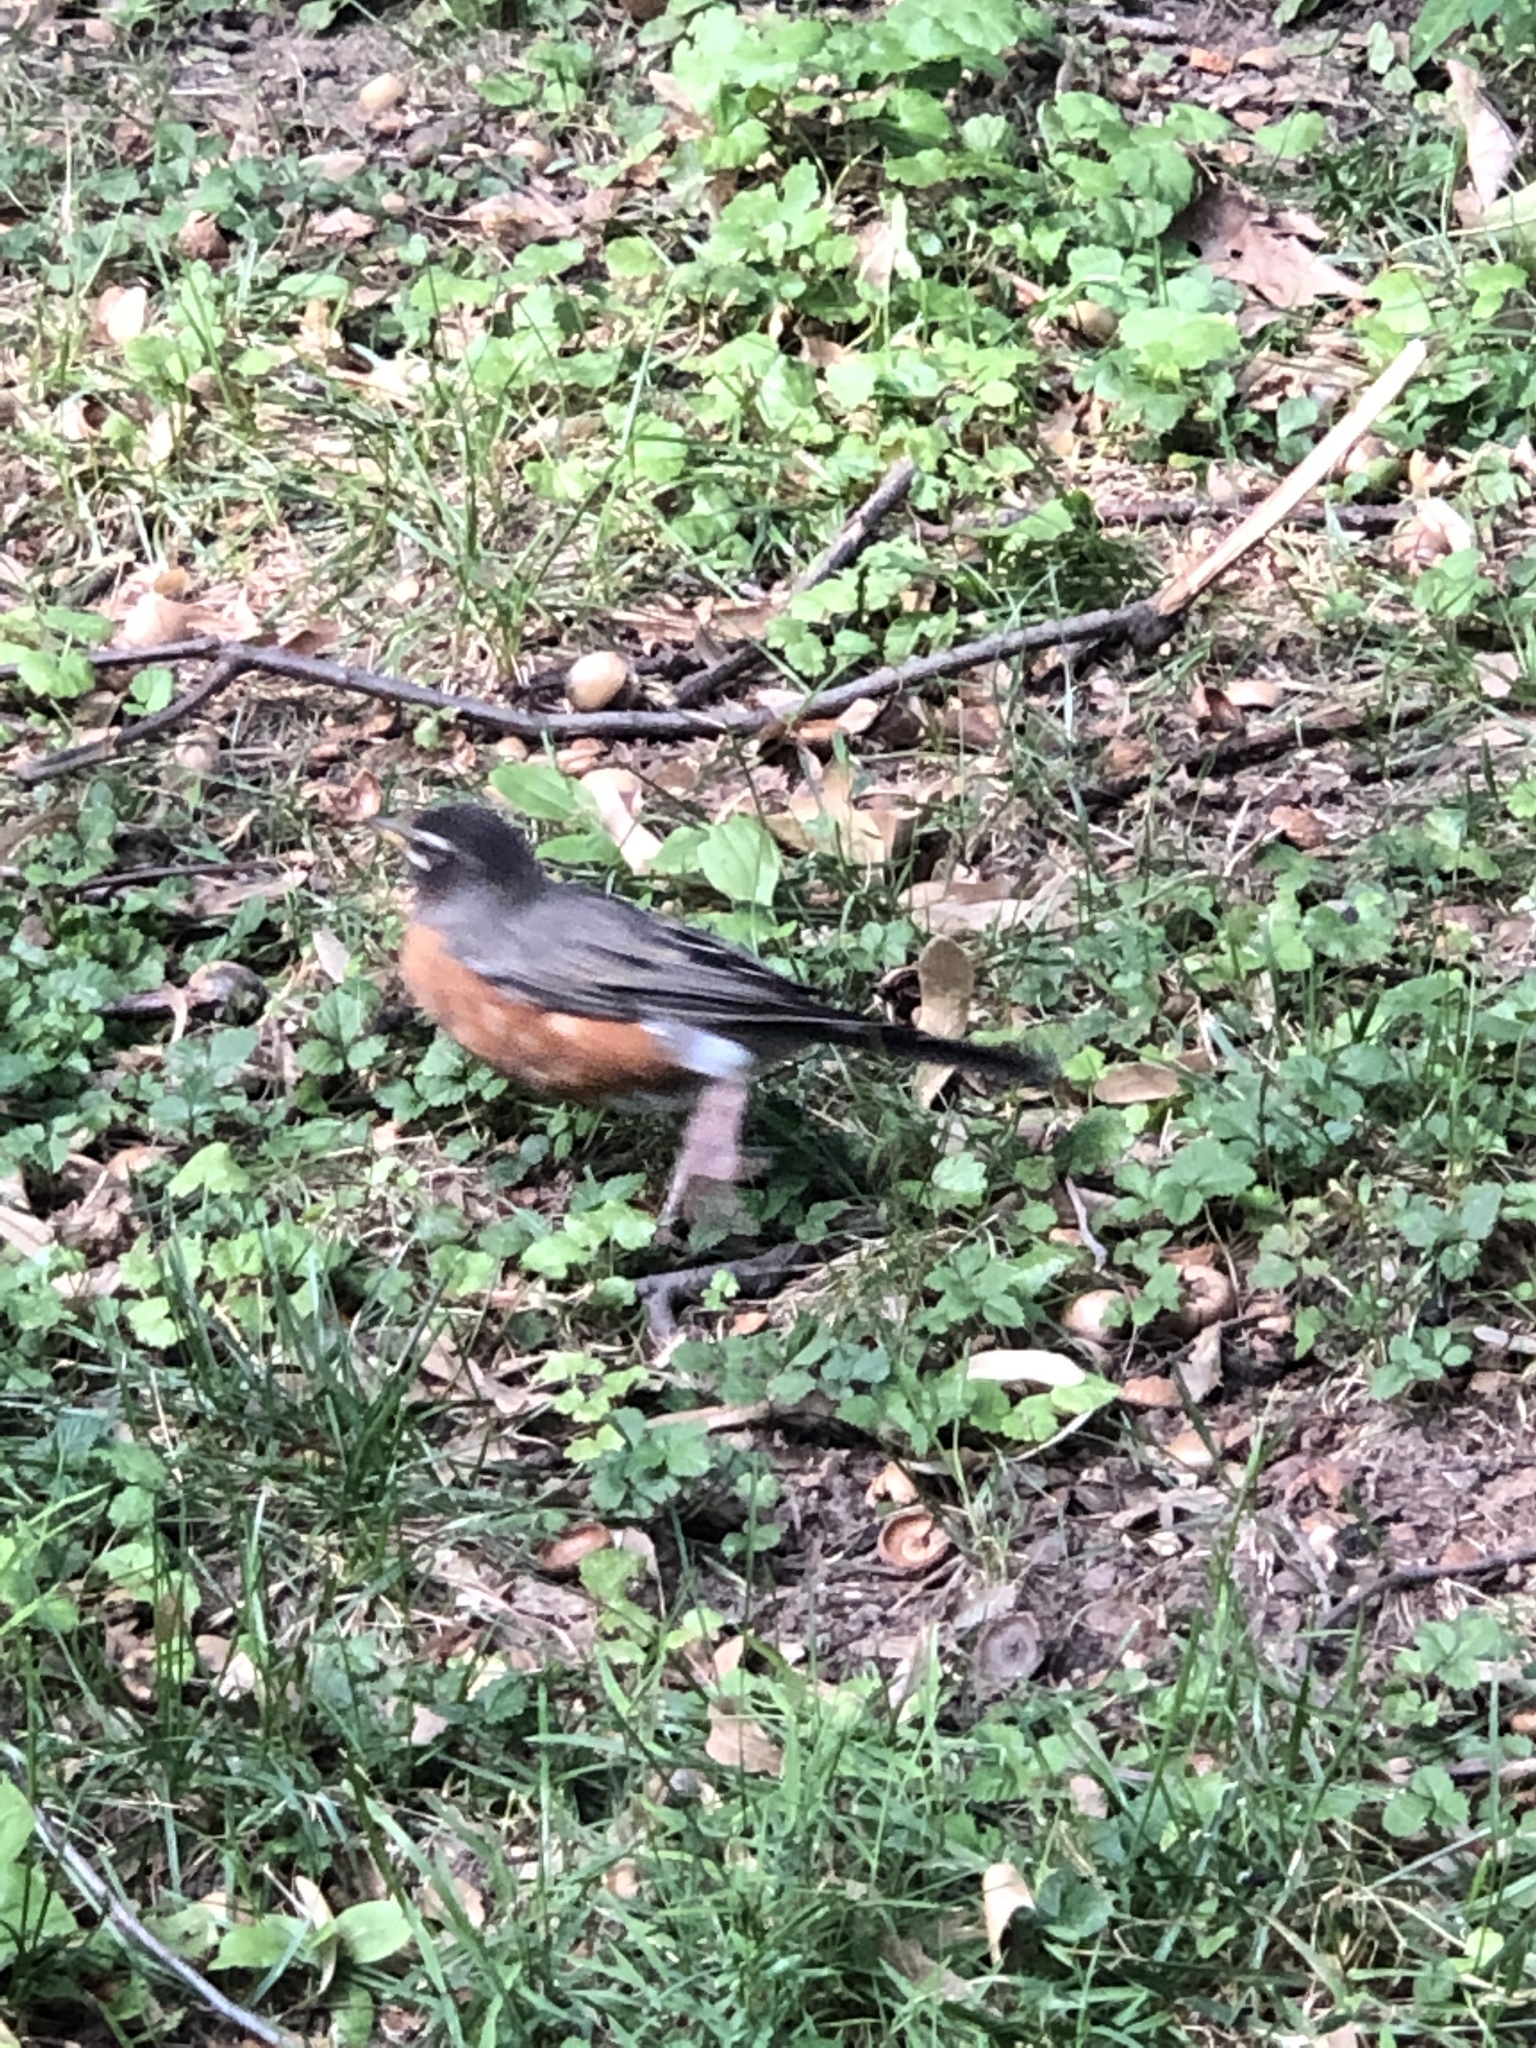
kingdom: Animalia
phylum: Chordata
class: Aves
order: Passeriformes
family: Turdidae
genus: Turdus
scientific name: Turdus migratorius
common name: American robin
